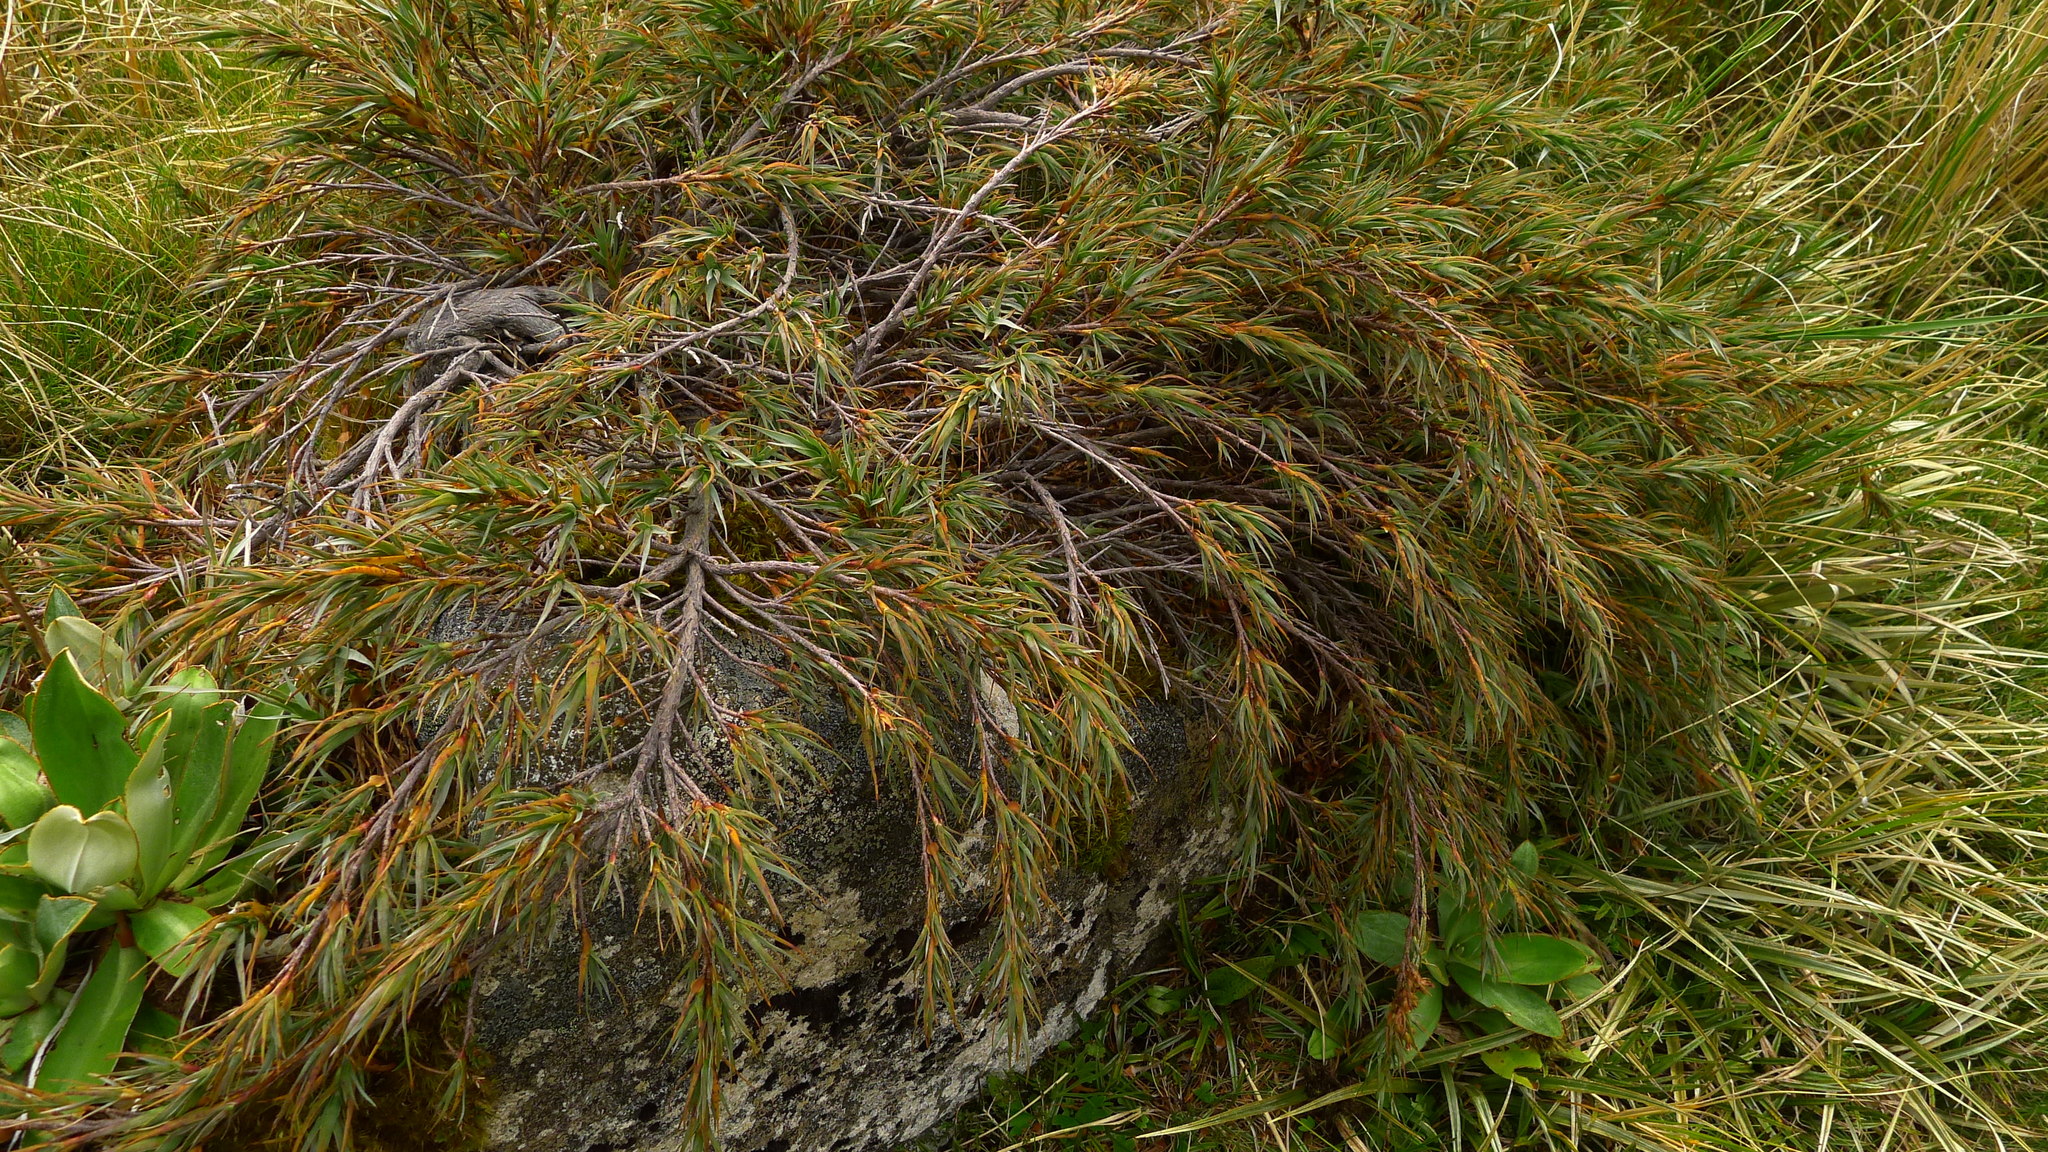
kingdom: Plantae
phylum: Tracheophyta
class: Magnoliopsida
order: Ericales
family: Ericaceae
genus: Dracophyllum
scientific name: Dracophyllum pubescens
